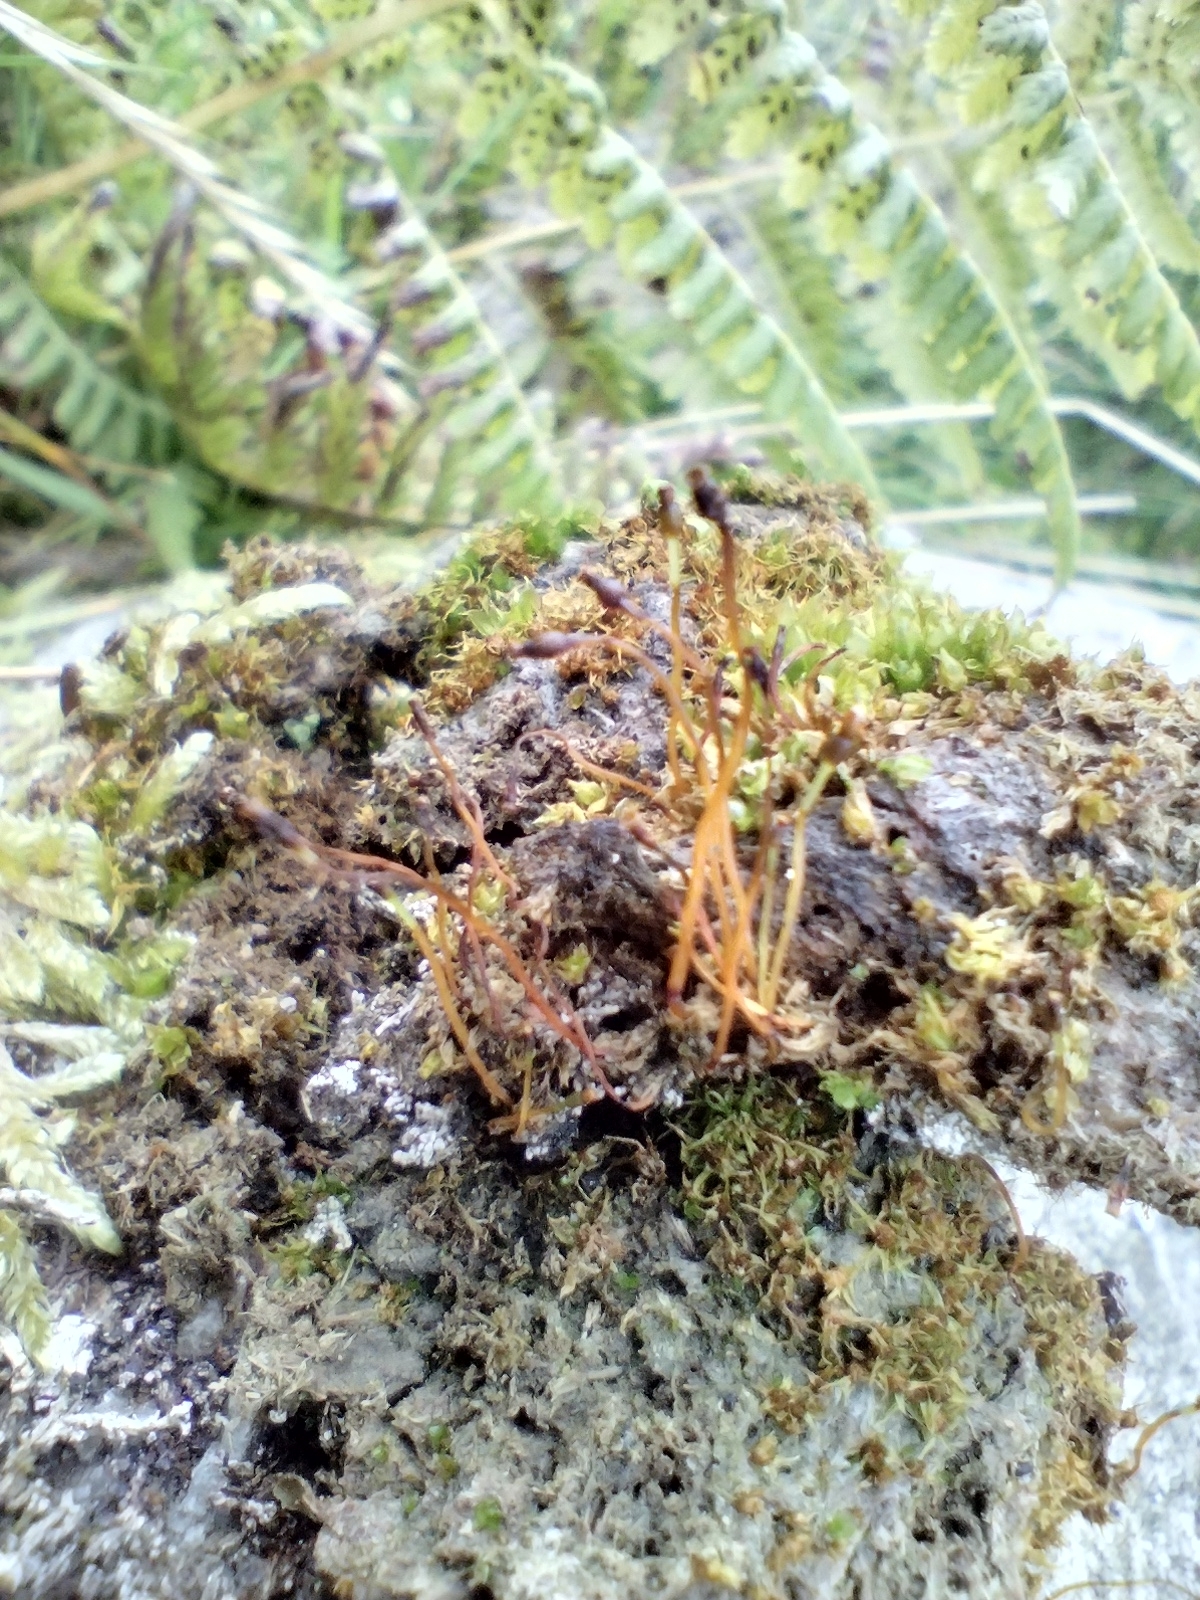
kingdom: Plantae
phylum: Bryophyta
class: Bryopsida
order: Splachnales
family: Splachnaceae
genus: Splachnum
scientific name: Splachnum sphaericum
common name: Round-fruited dung moss
